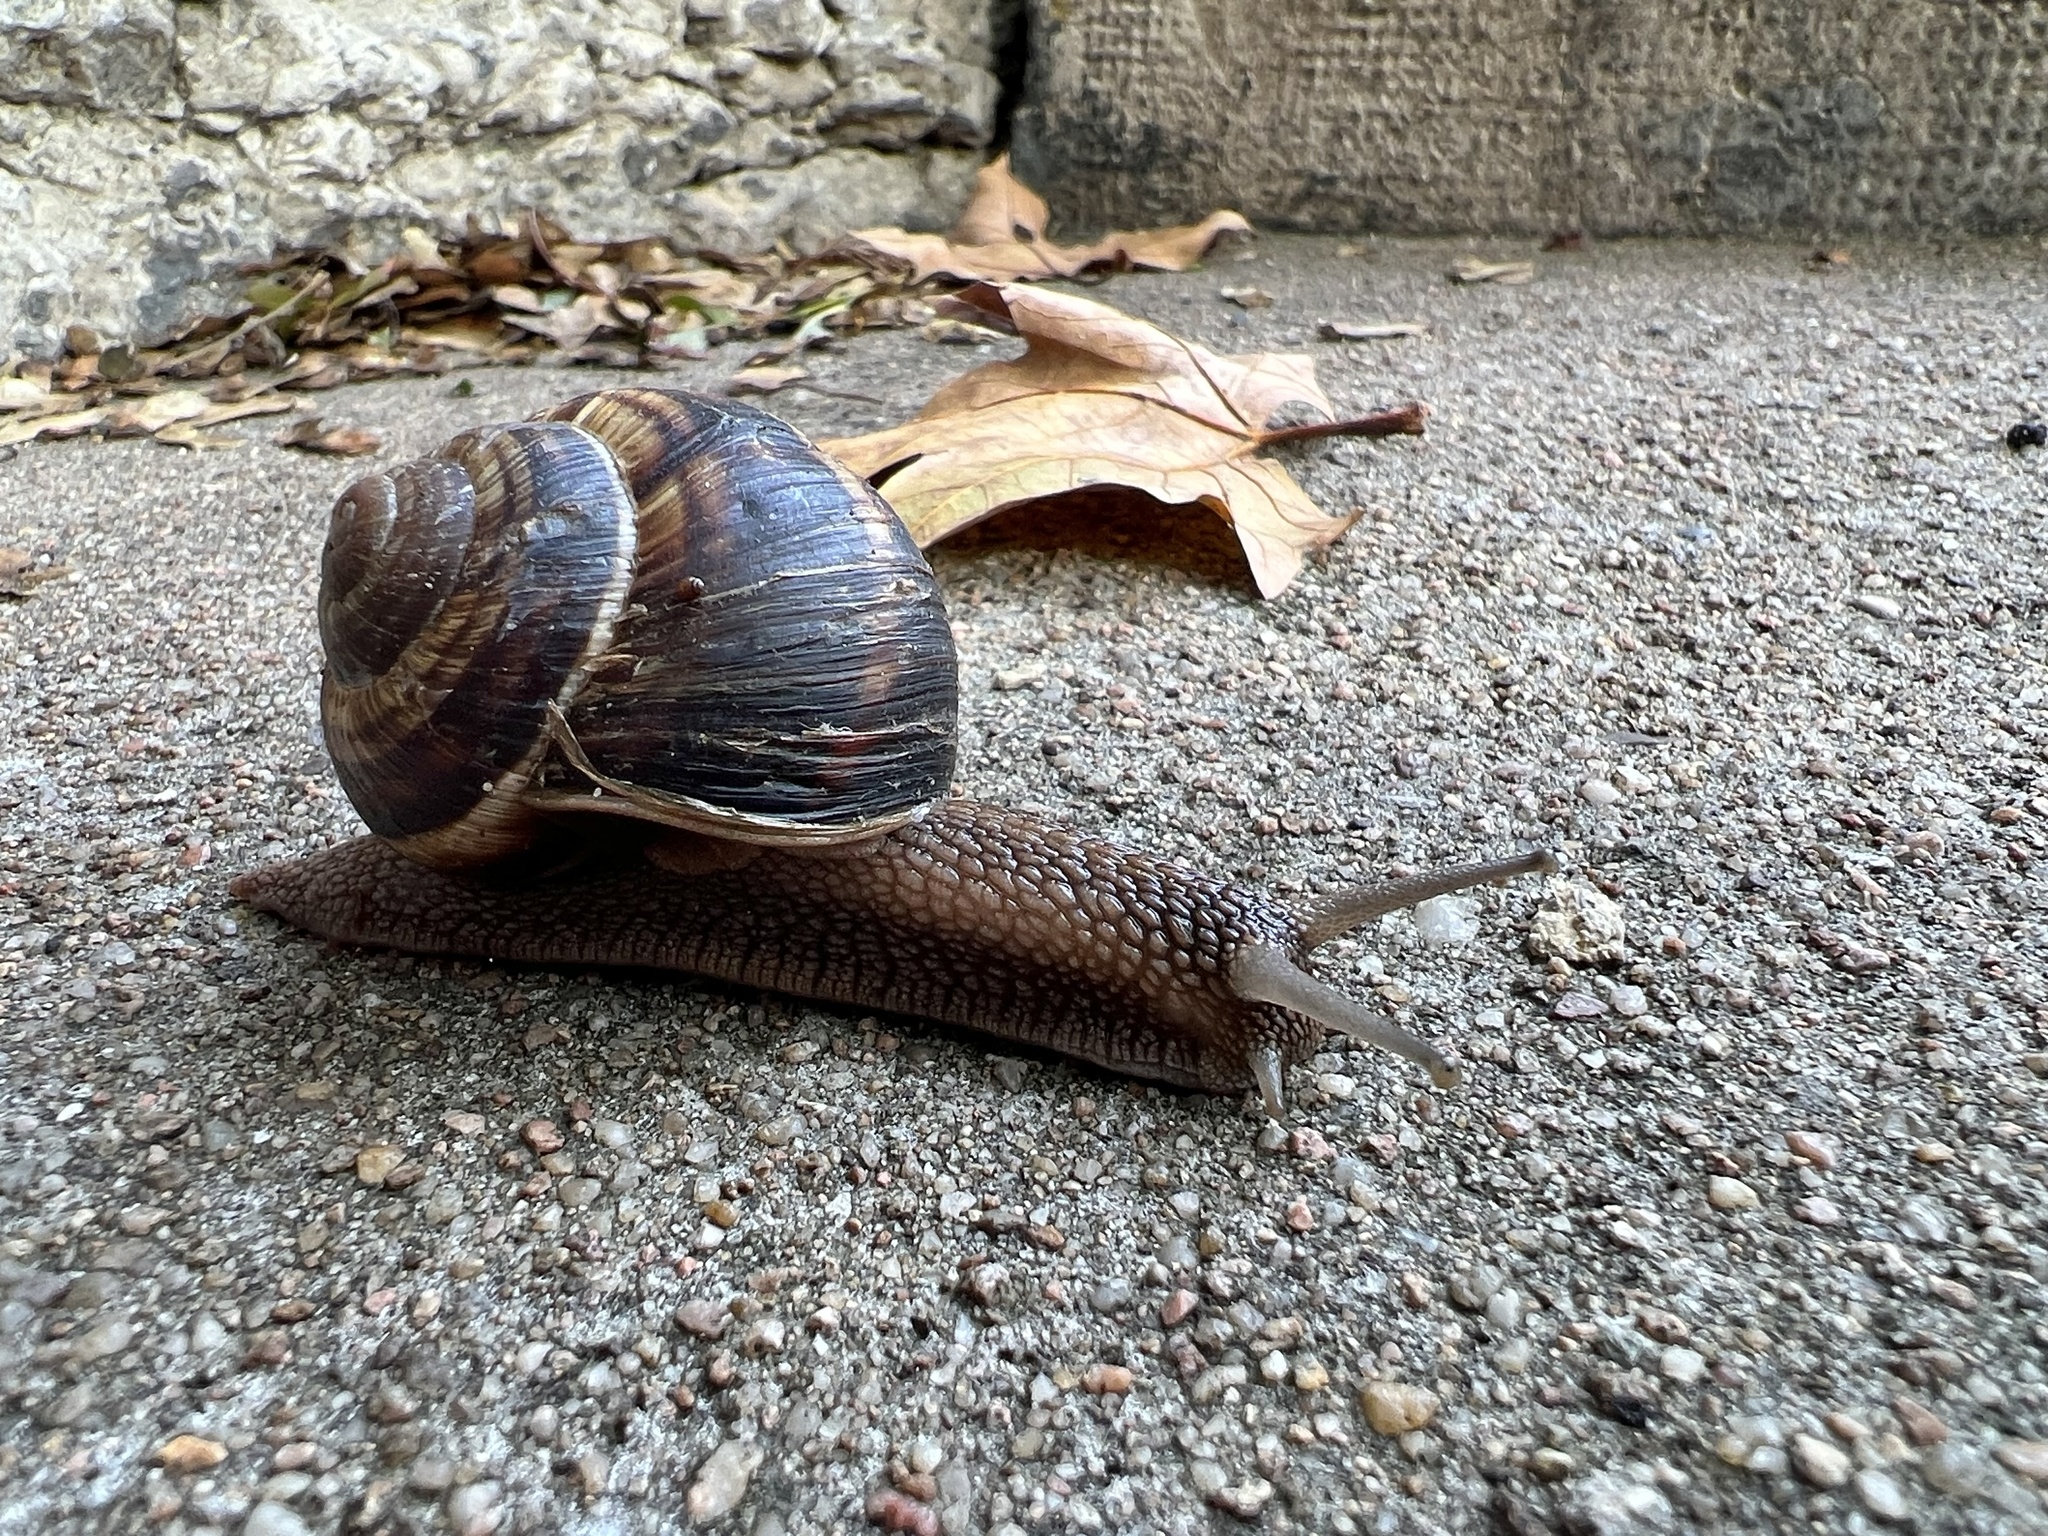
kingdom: Animalia
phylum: Mollusca
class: Gastropoda
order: Stylommatophora
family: Helicidae
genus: Helix
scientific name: Helix lucorum
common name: Turkish snail
